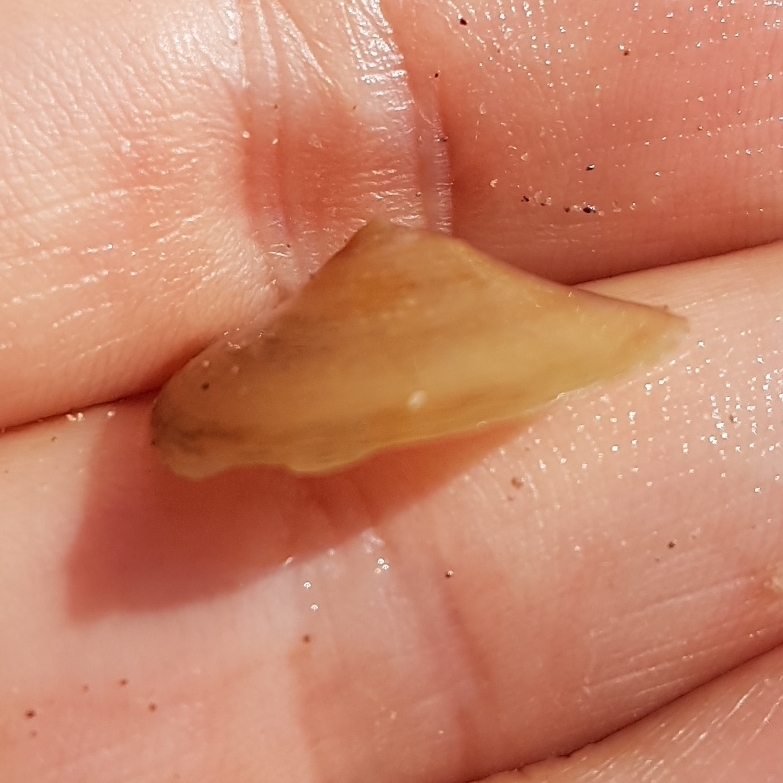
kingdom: Animalia
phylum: Mollusca
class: Gastropoda
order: Littorinimorpha
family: Calyptraeidae
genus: Calyptraea
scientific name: Calyptraea chinensis
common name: Chinaman's hat
